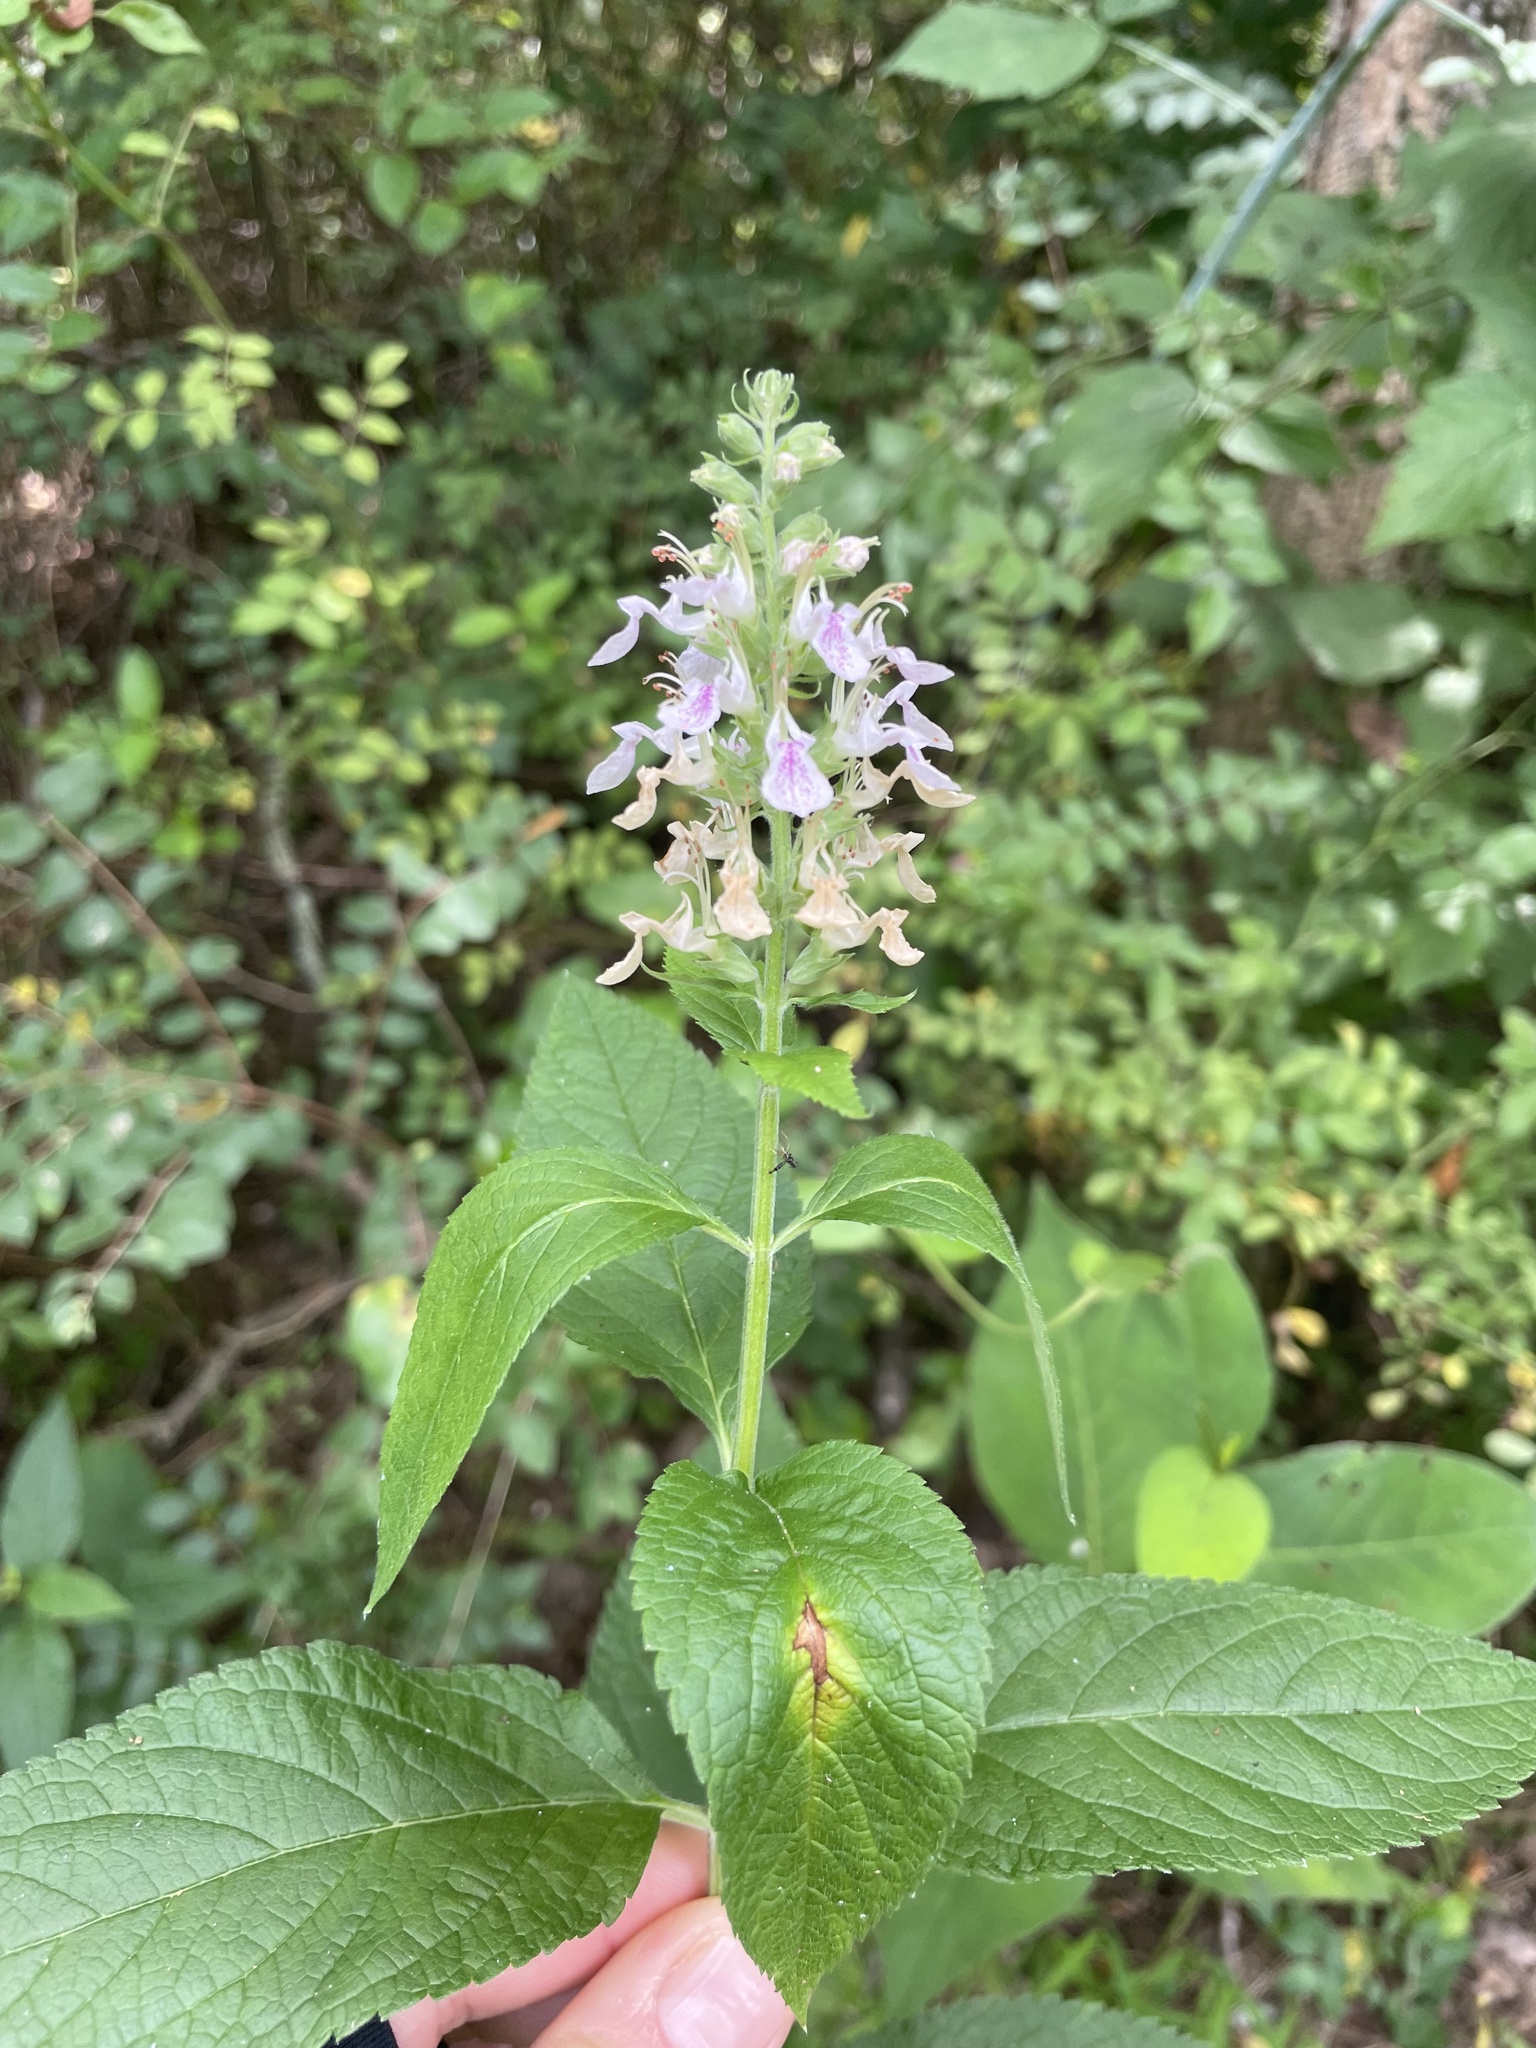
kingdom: Plantae
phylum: Tracheophyta
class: Magnoliopsida
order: Lamiales
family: Lamiaceae
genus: Teucrium
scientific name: Teucrium canadense
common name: American germander
